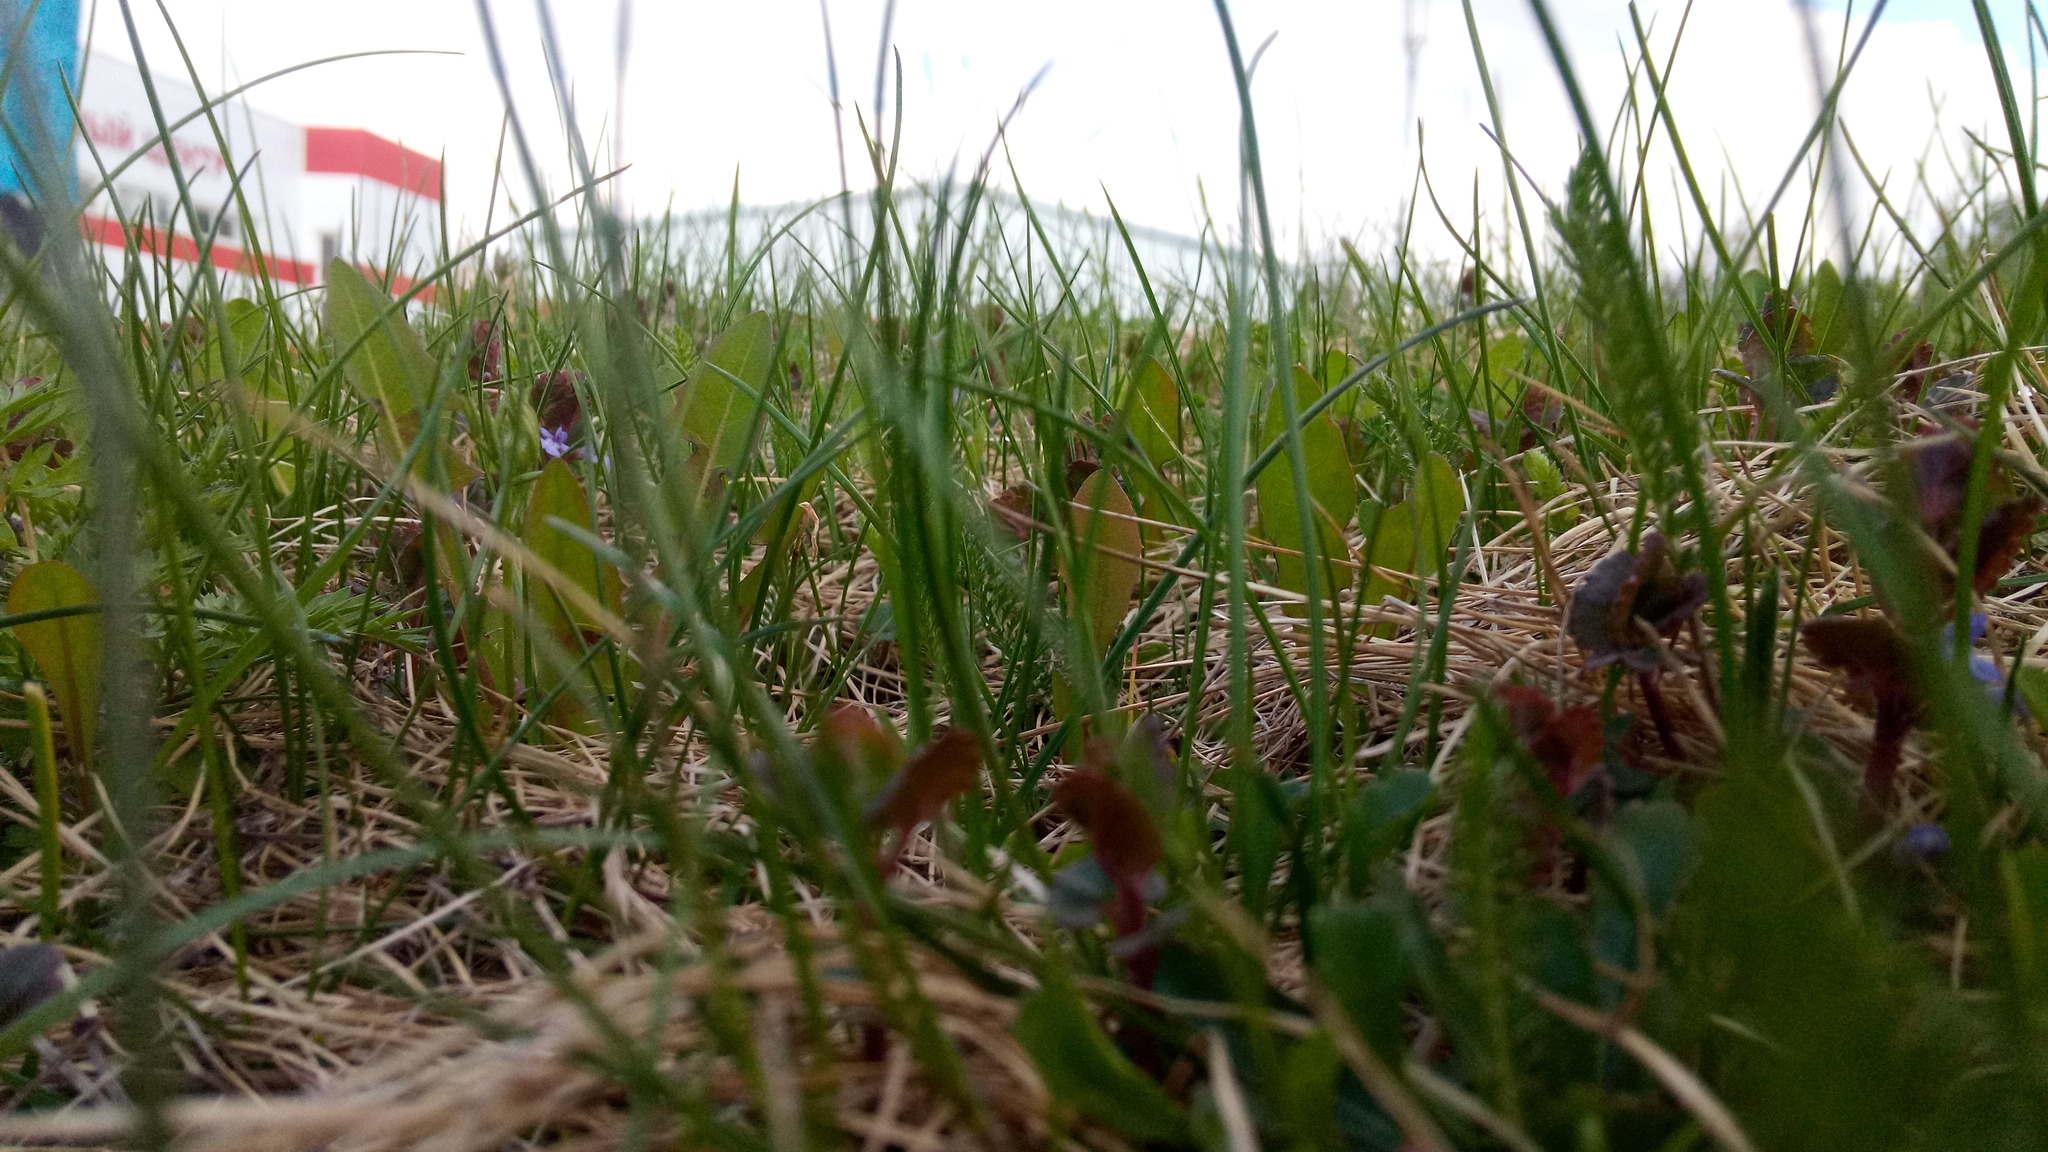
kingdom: Plantae
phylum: Tracheophyta
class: Magnoliopsida
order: Lamiales
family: Lamiaceae
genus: Glechoma
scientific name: Glechoma hederacea
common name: Ground ivy
